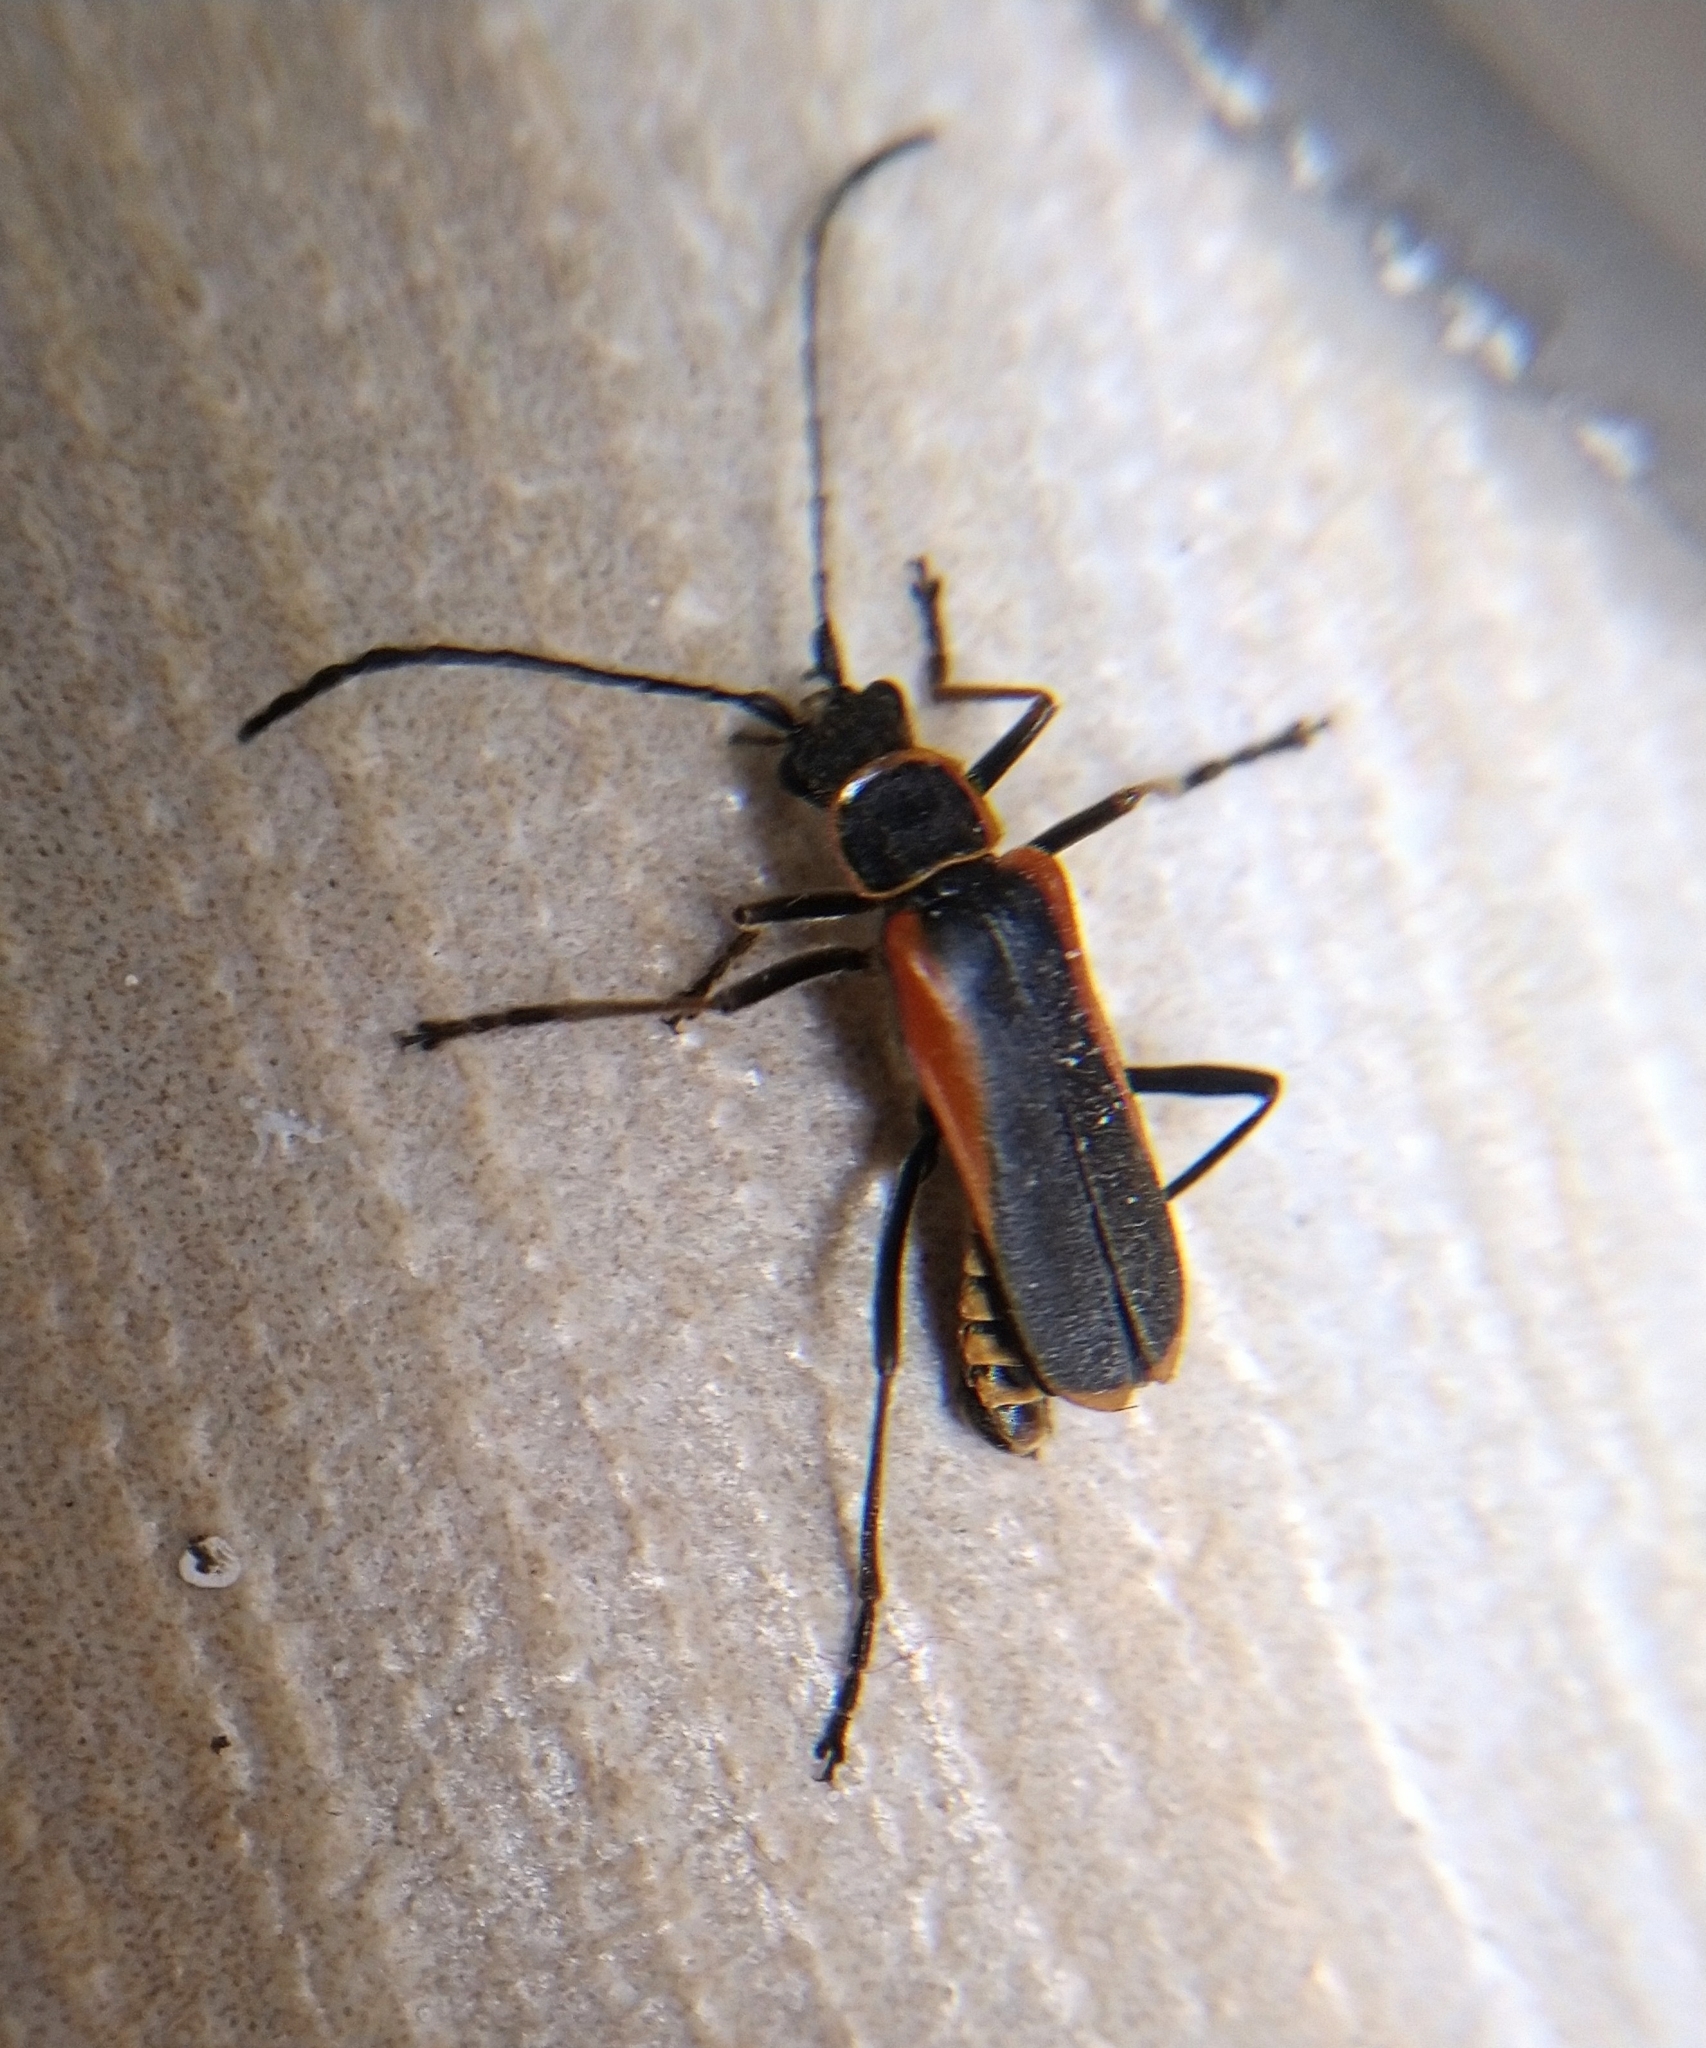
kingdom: Animalia
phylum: Arthropoda
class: Insecta
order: Coleoptera
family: Cantharidae
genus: Chauliognathus
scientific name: Chauliognathus limbicollis
